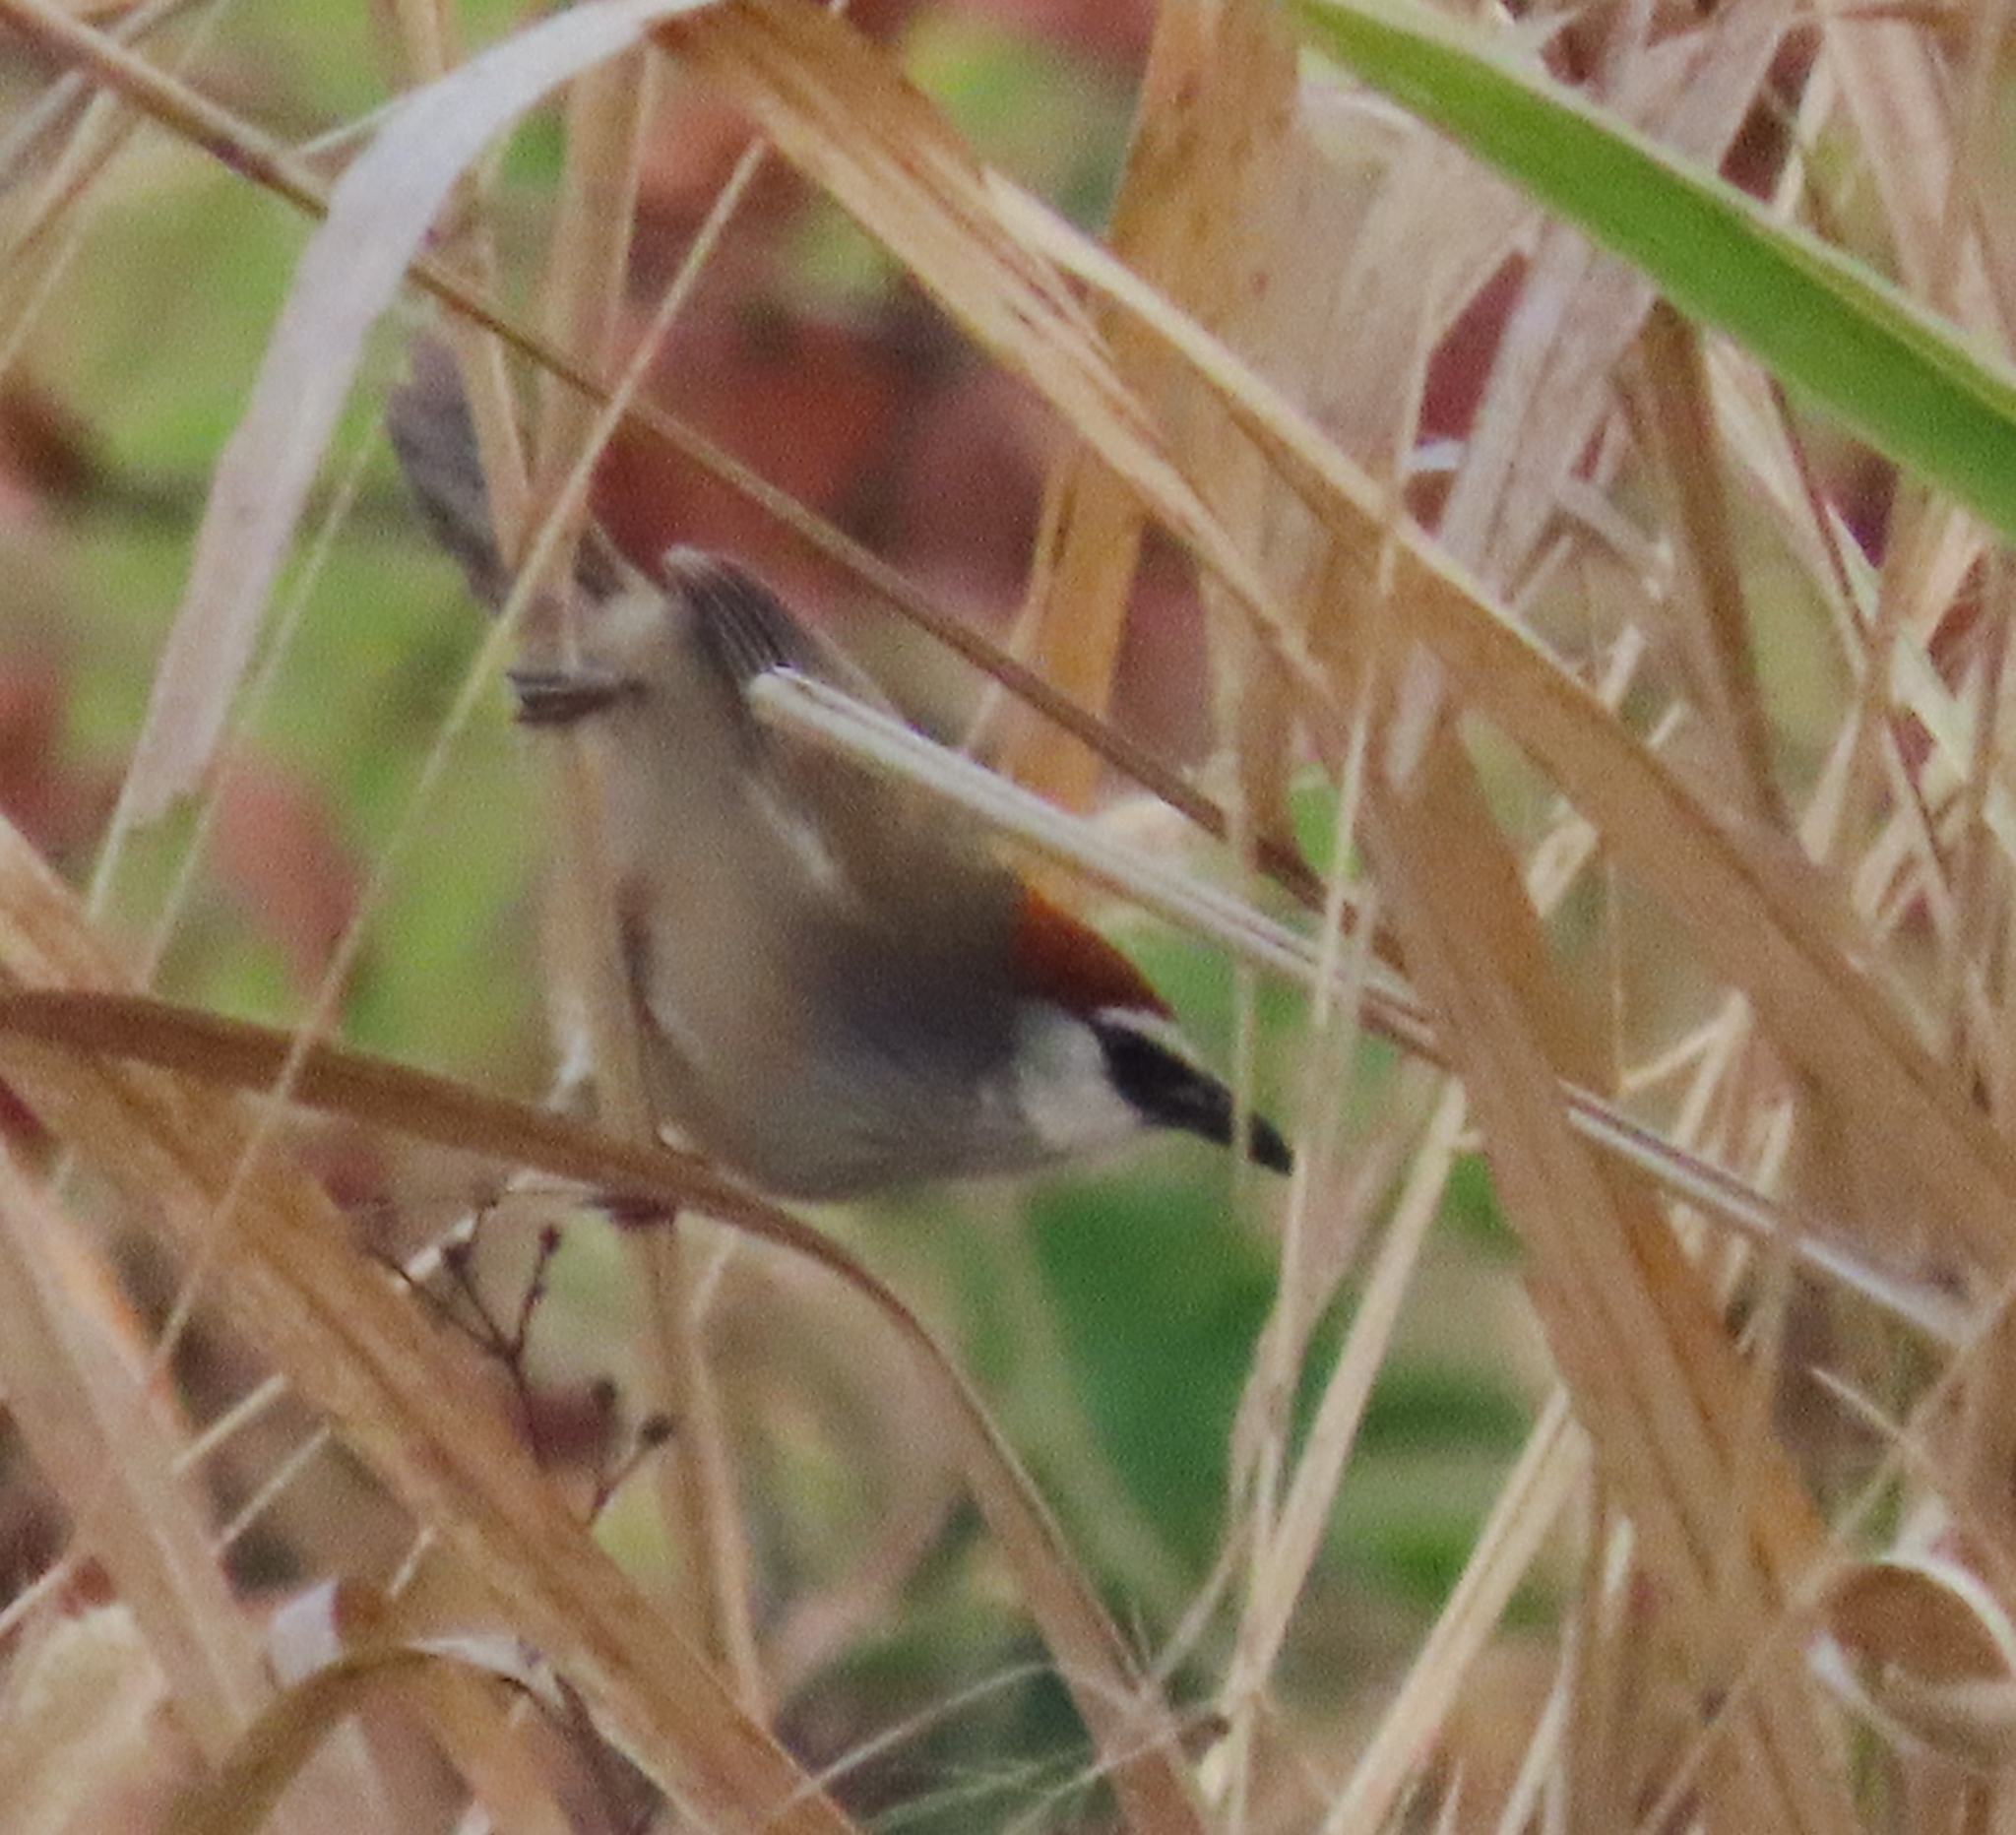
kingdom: Animalia
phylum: Chordata
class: Aves
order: Passeriformes
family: Timaliidae
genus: Timalia
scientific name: Timalia pileata
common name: Chestnut-capped babbler
